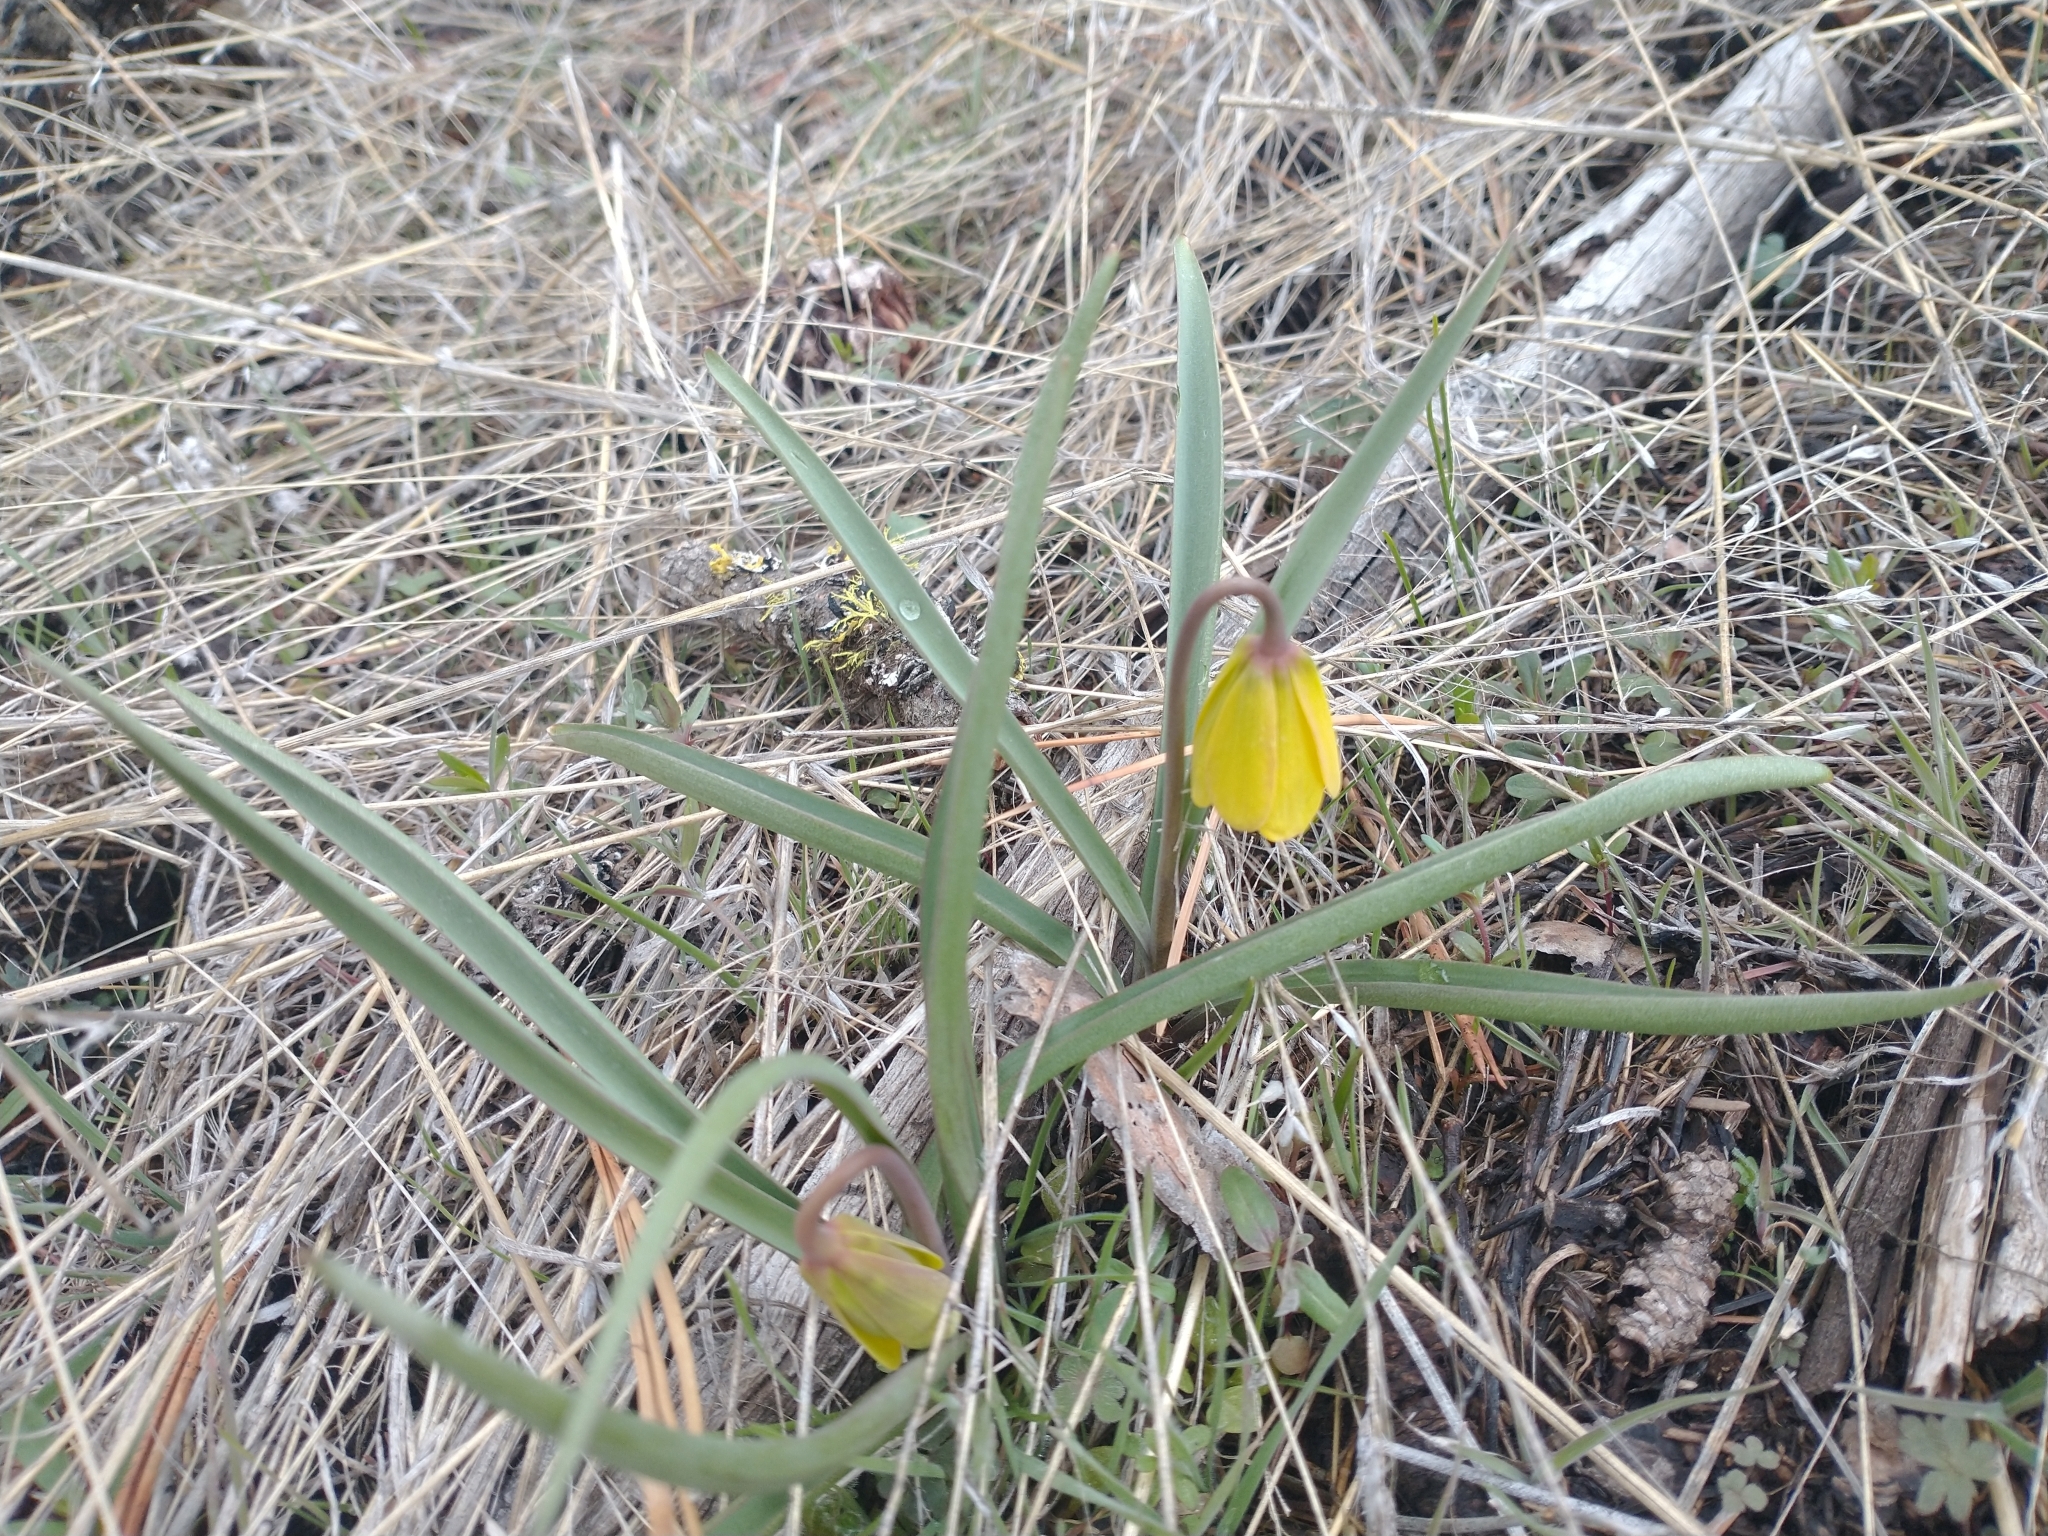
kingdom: Plantae
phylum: Tracheophyta
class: Liliopsida
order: Liliales
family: Liliaceae
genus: Fritillaria
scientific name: Fritillaria pudica
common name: Yellow fritillary
